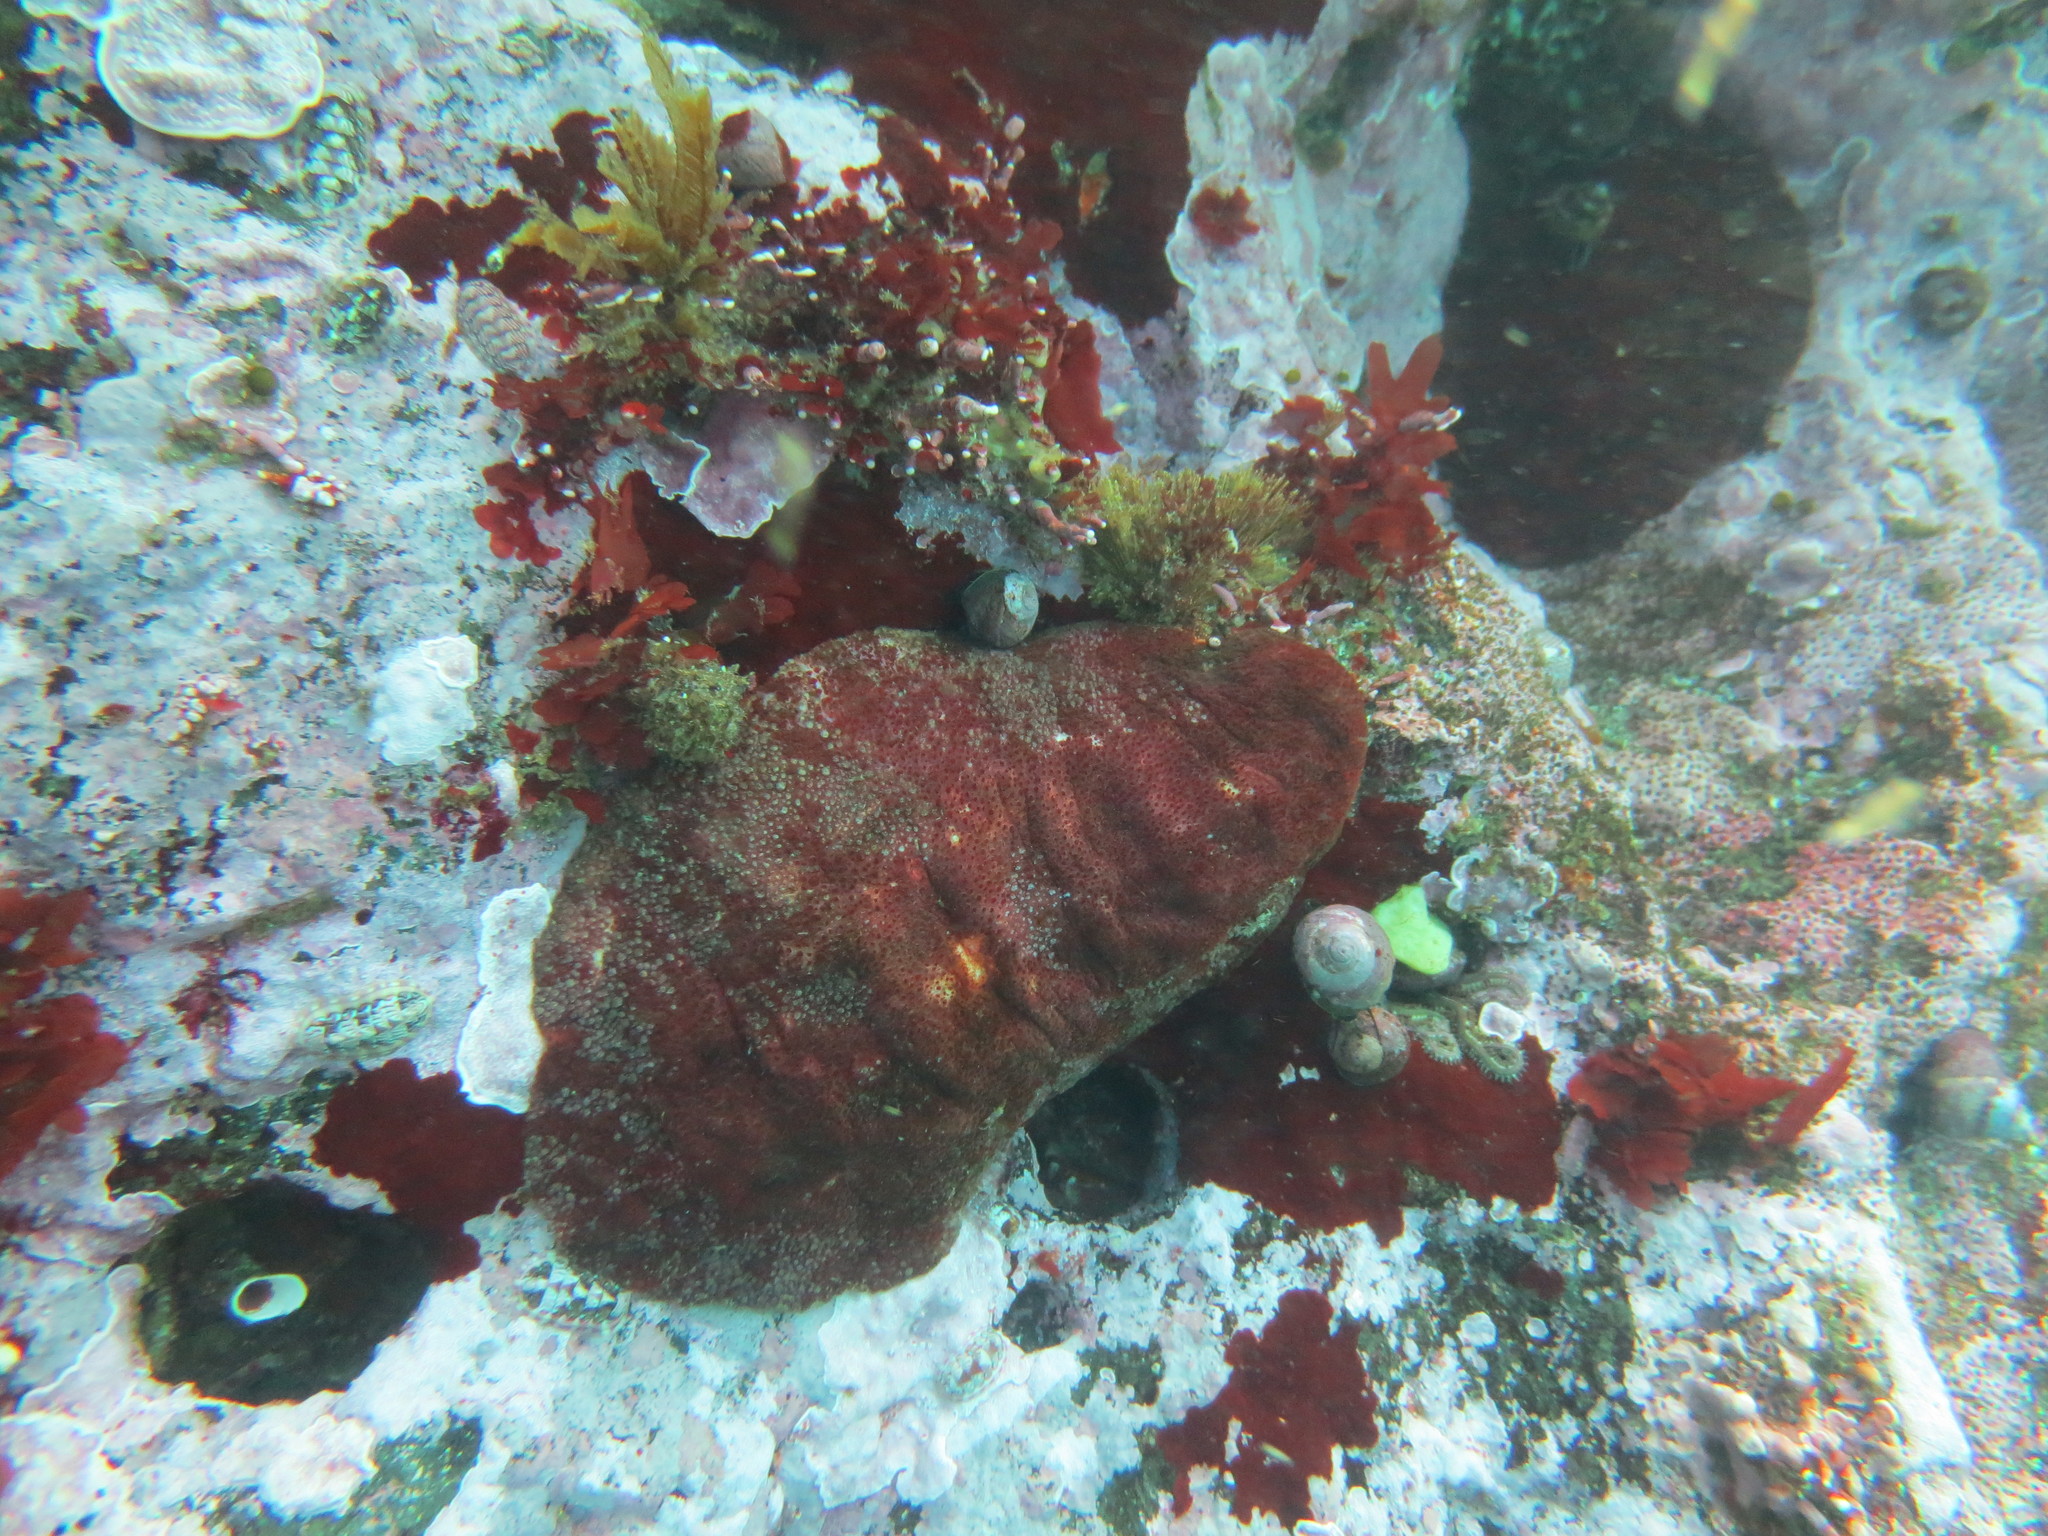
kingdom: Animalia
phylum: Mollusca
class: Polyplacophora
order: Chitonida
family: Acanthochitonidae
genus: Cryptochiton
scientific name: Cryptochiton stelleri
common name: Giant pacific chiton
